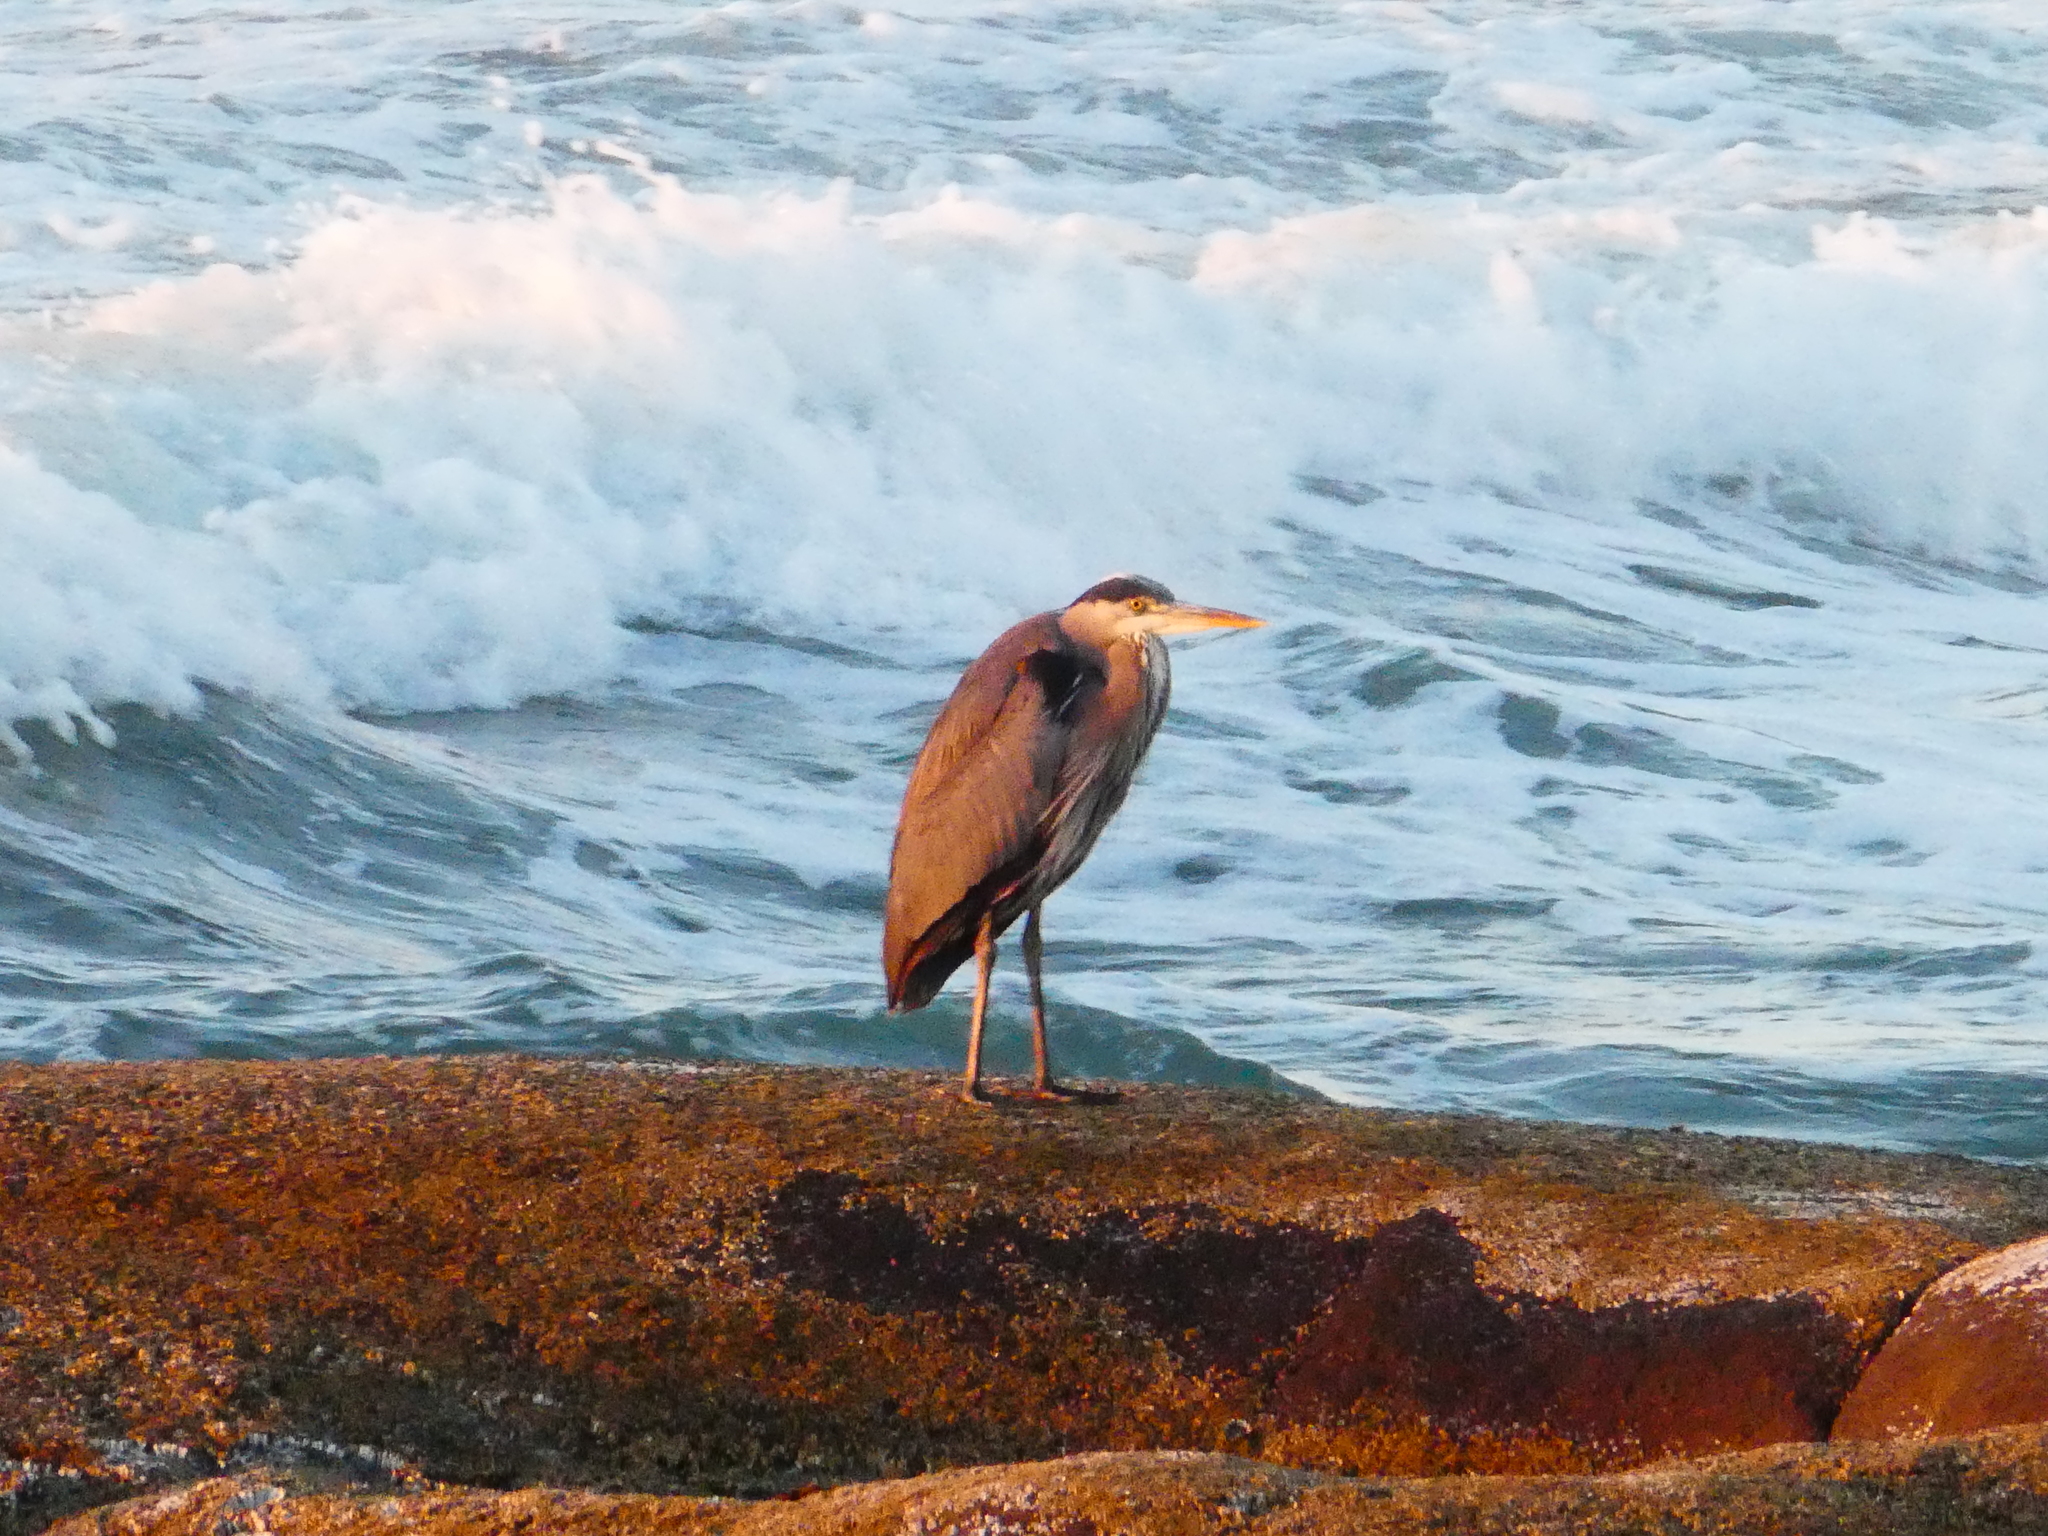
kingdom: Animalia
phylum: Chordata
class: Aves
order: Pelecaniformes
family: Ardeidae
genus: Ardea
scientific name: Ardea herodias
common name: Great blue heron
